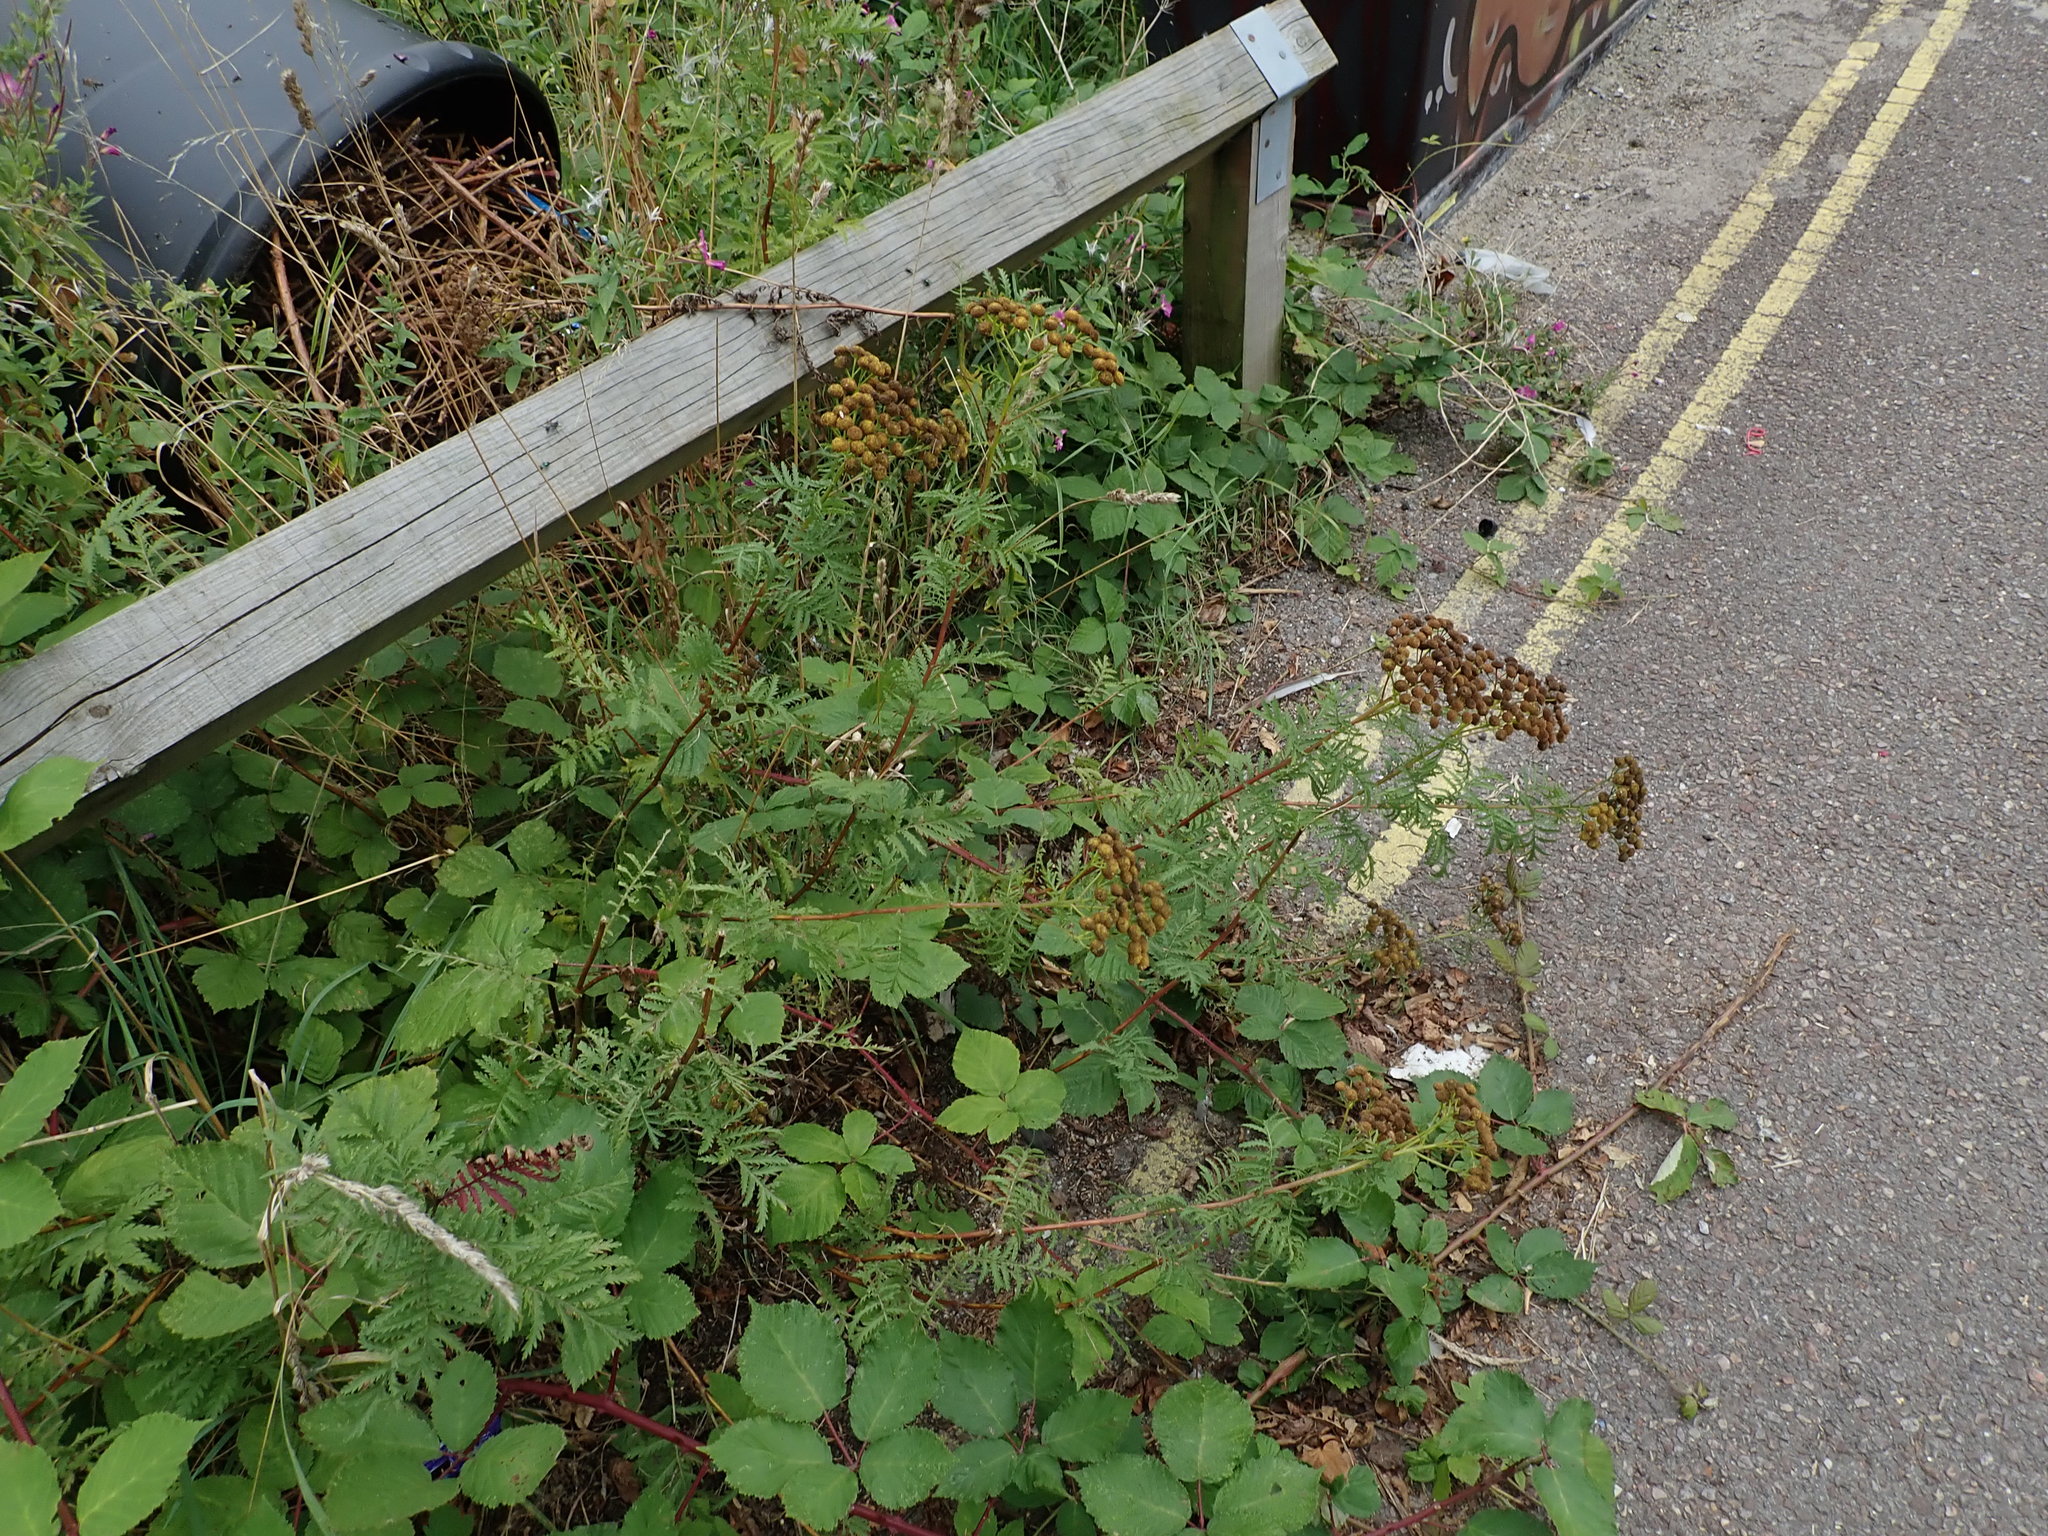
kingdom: Plantae
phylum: Tracheophyta
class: Magnoliopsida
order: Asterales
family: Asteraceae
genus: Tanacetum
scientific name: Tanacetum vulgare
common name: Common tansy
